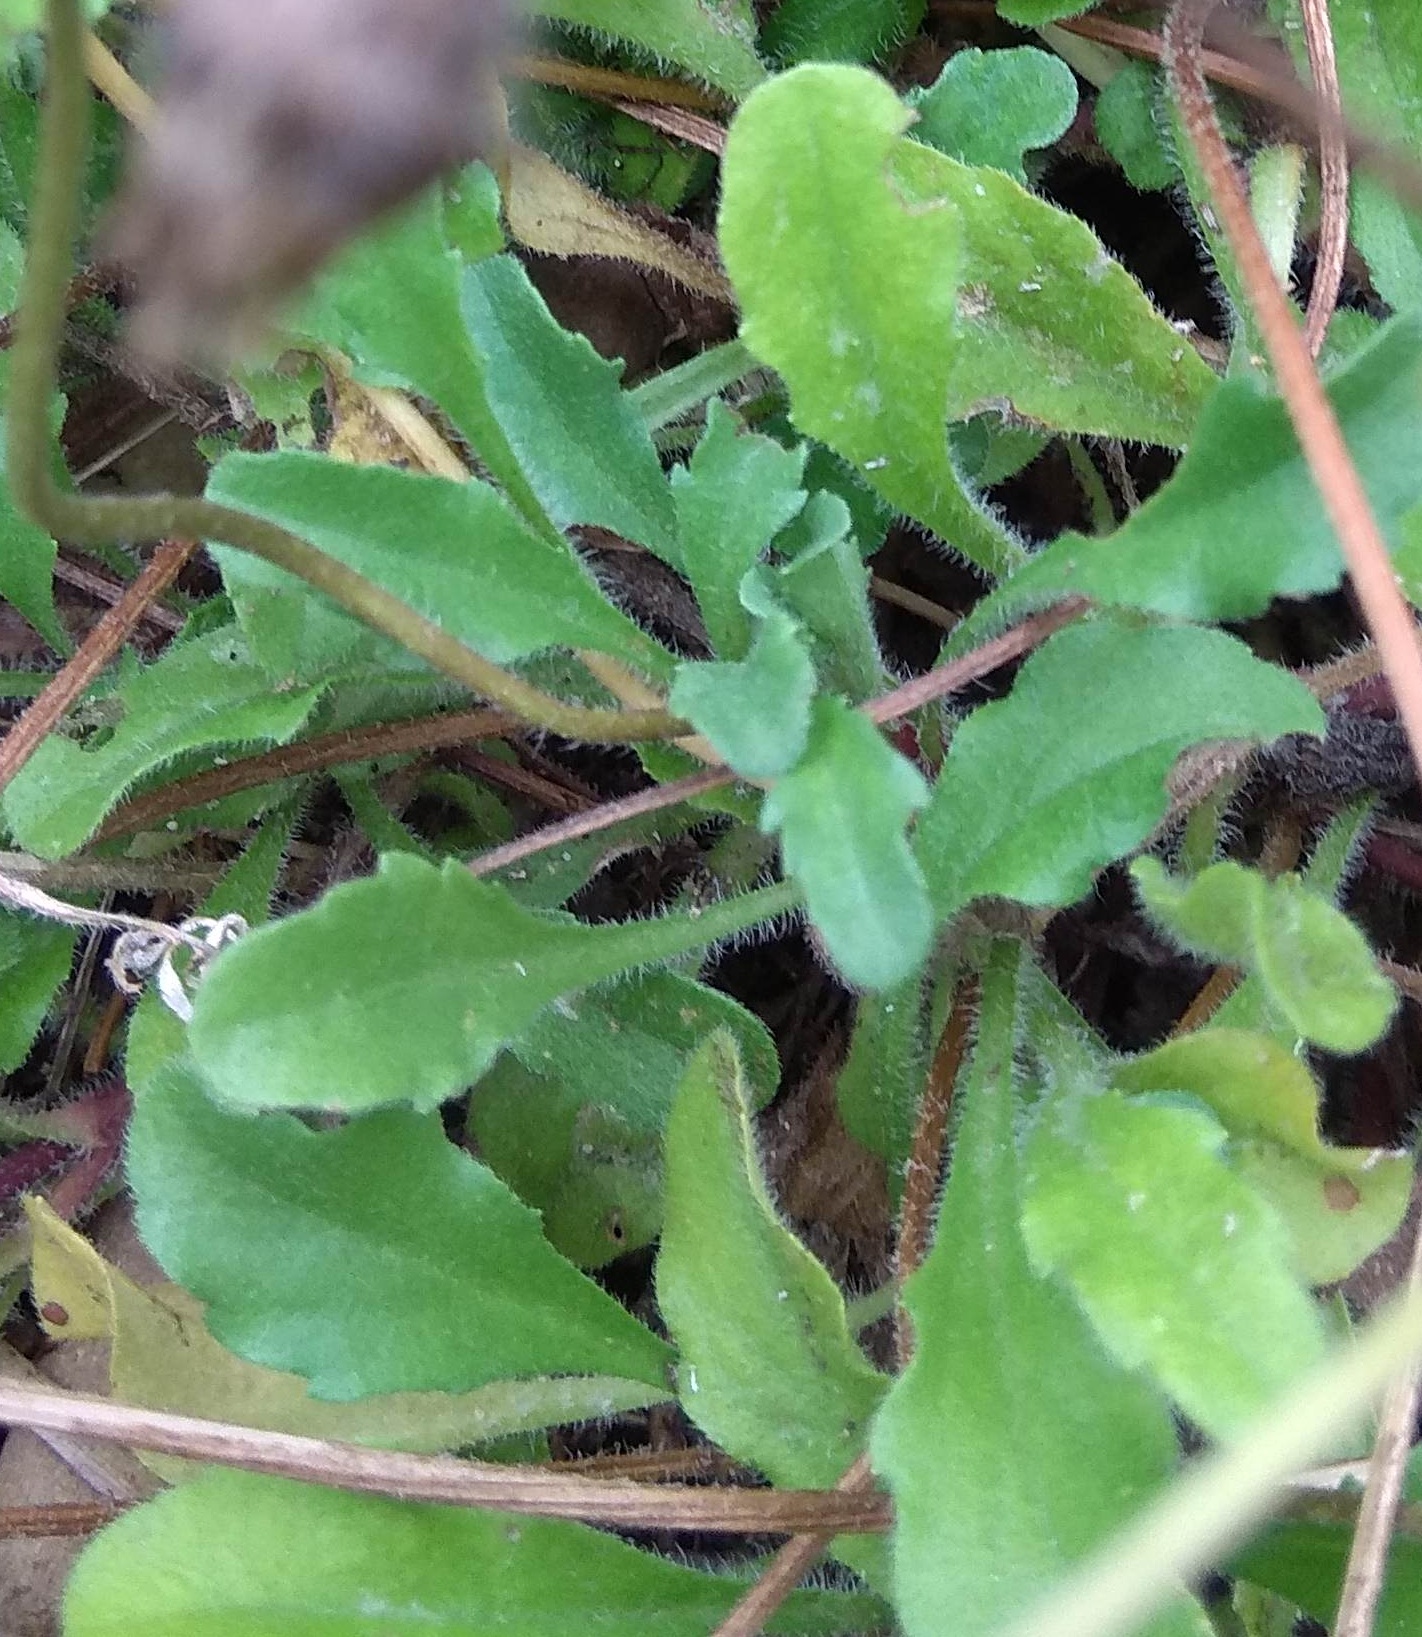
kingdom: Plantae
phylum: Tracheophyta
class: Magnoliopsida
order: Asterales
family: Asteraceae
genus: Bellis
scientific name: Bellis perennis
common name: Lawndaisy
